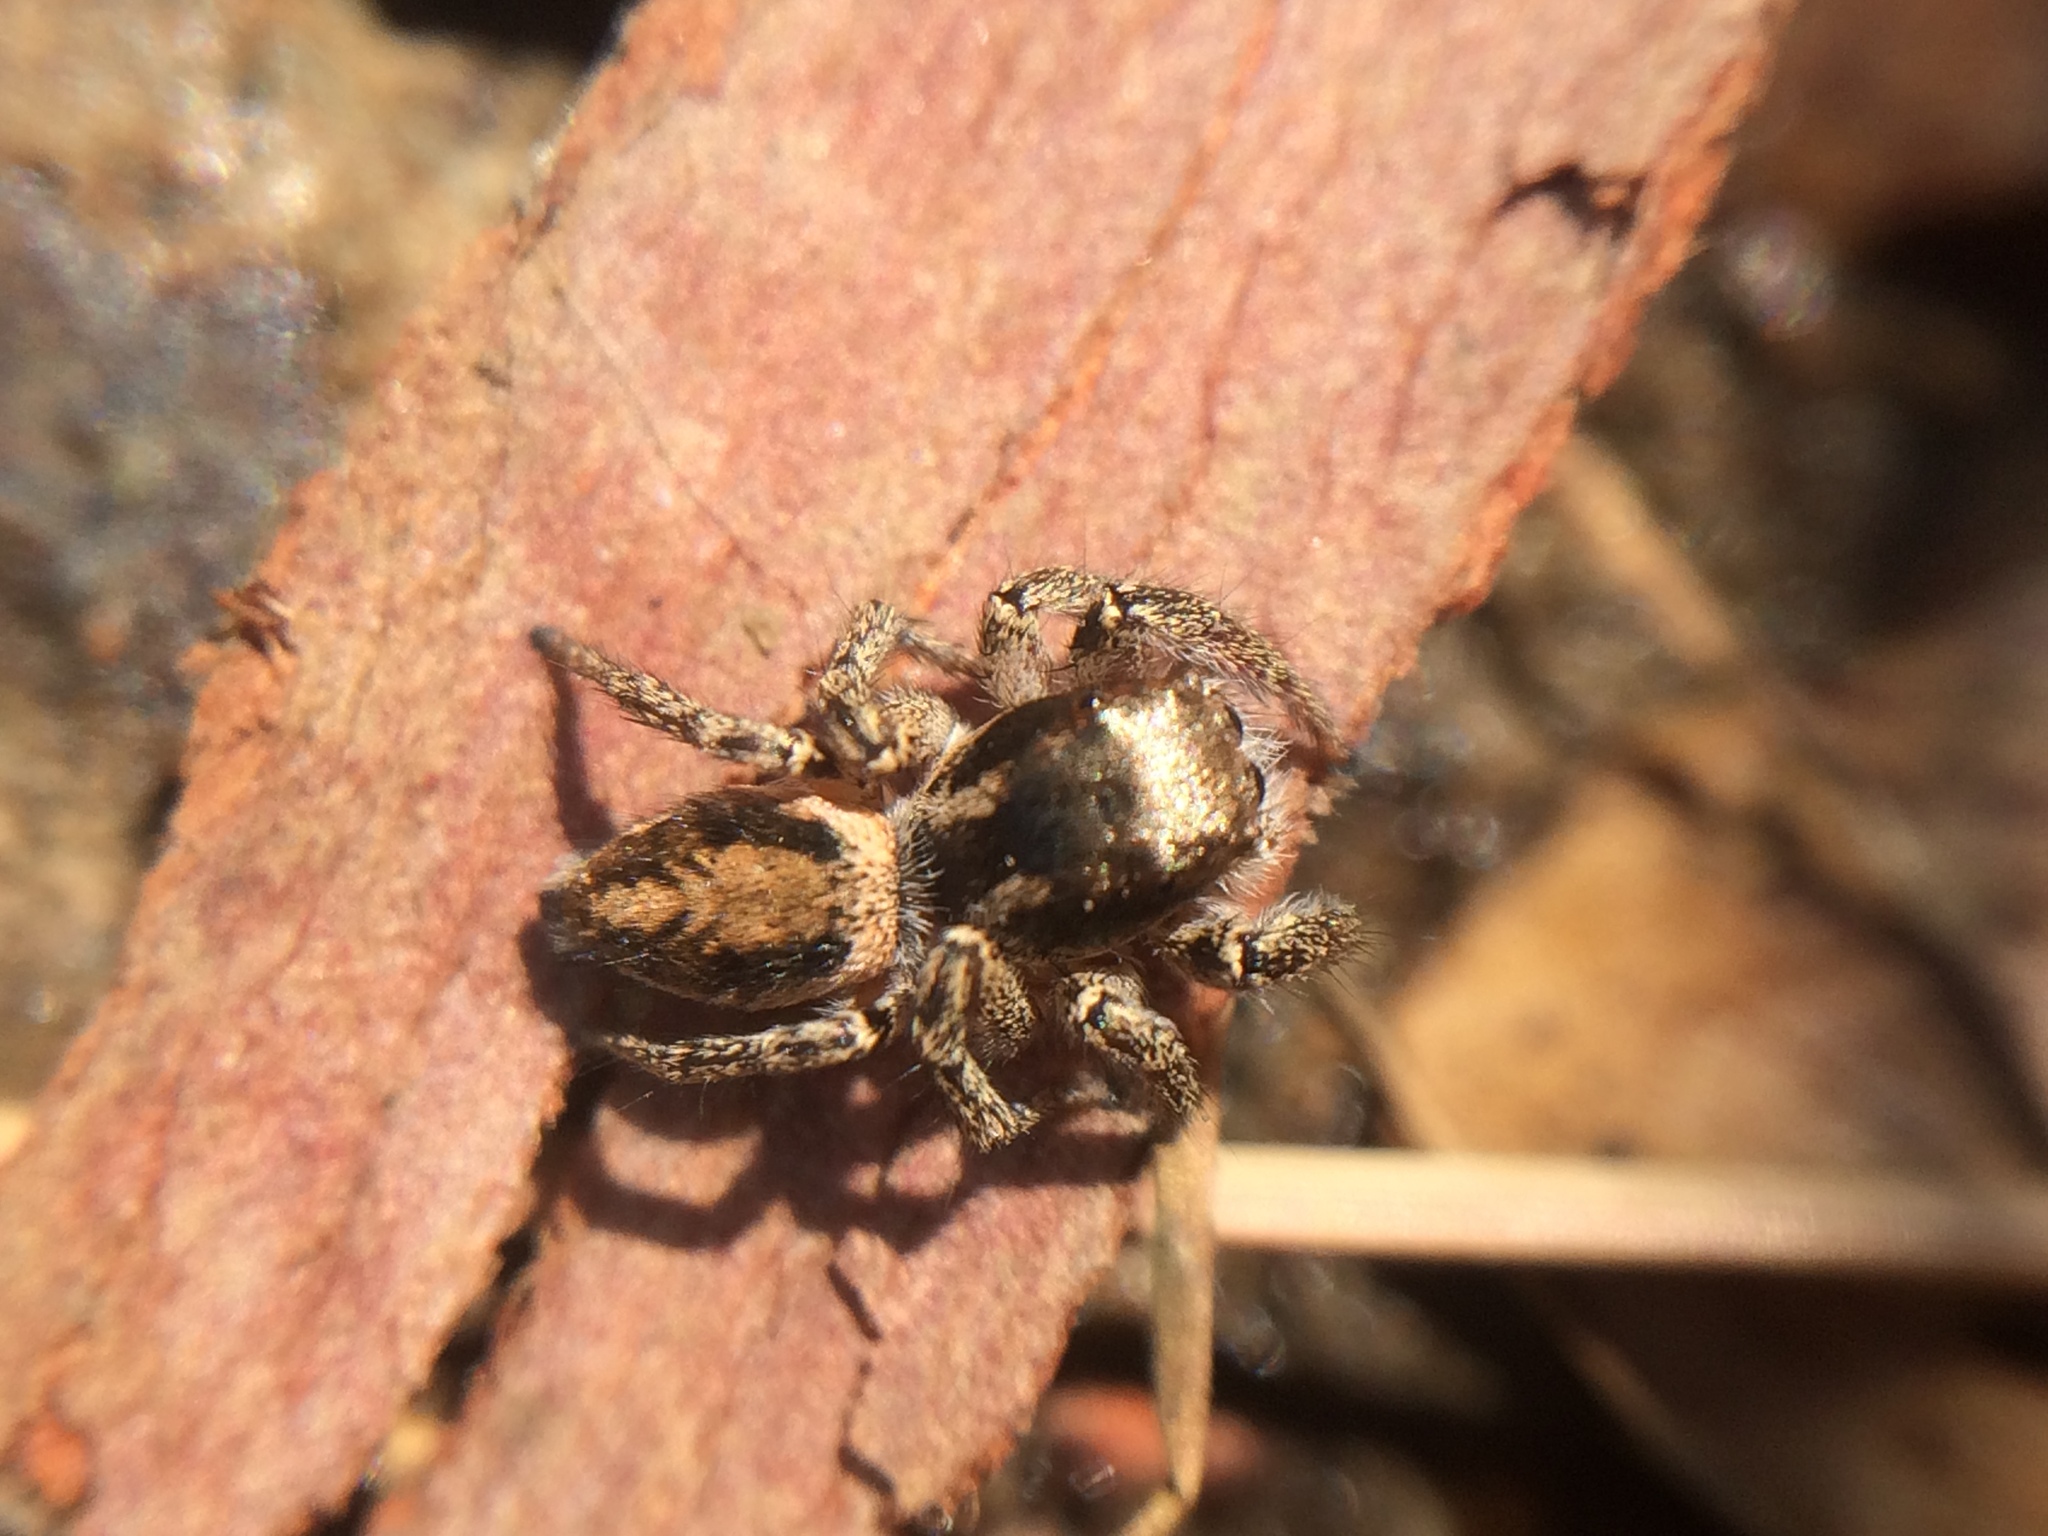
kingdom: Animalia
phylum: Arthropoda
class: Arachnida
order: Araneae
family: Salticidae
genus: Habronattus
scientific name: Habronattus pyrrithrix
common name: Jumping spider
